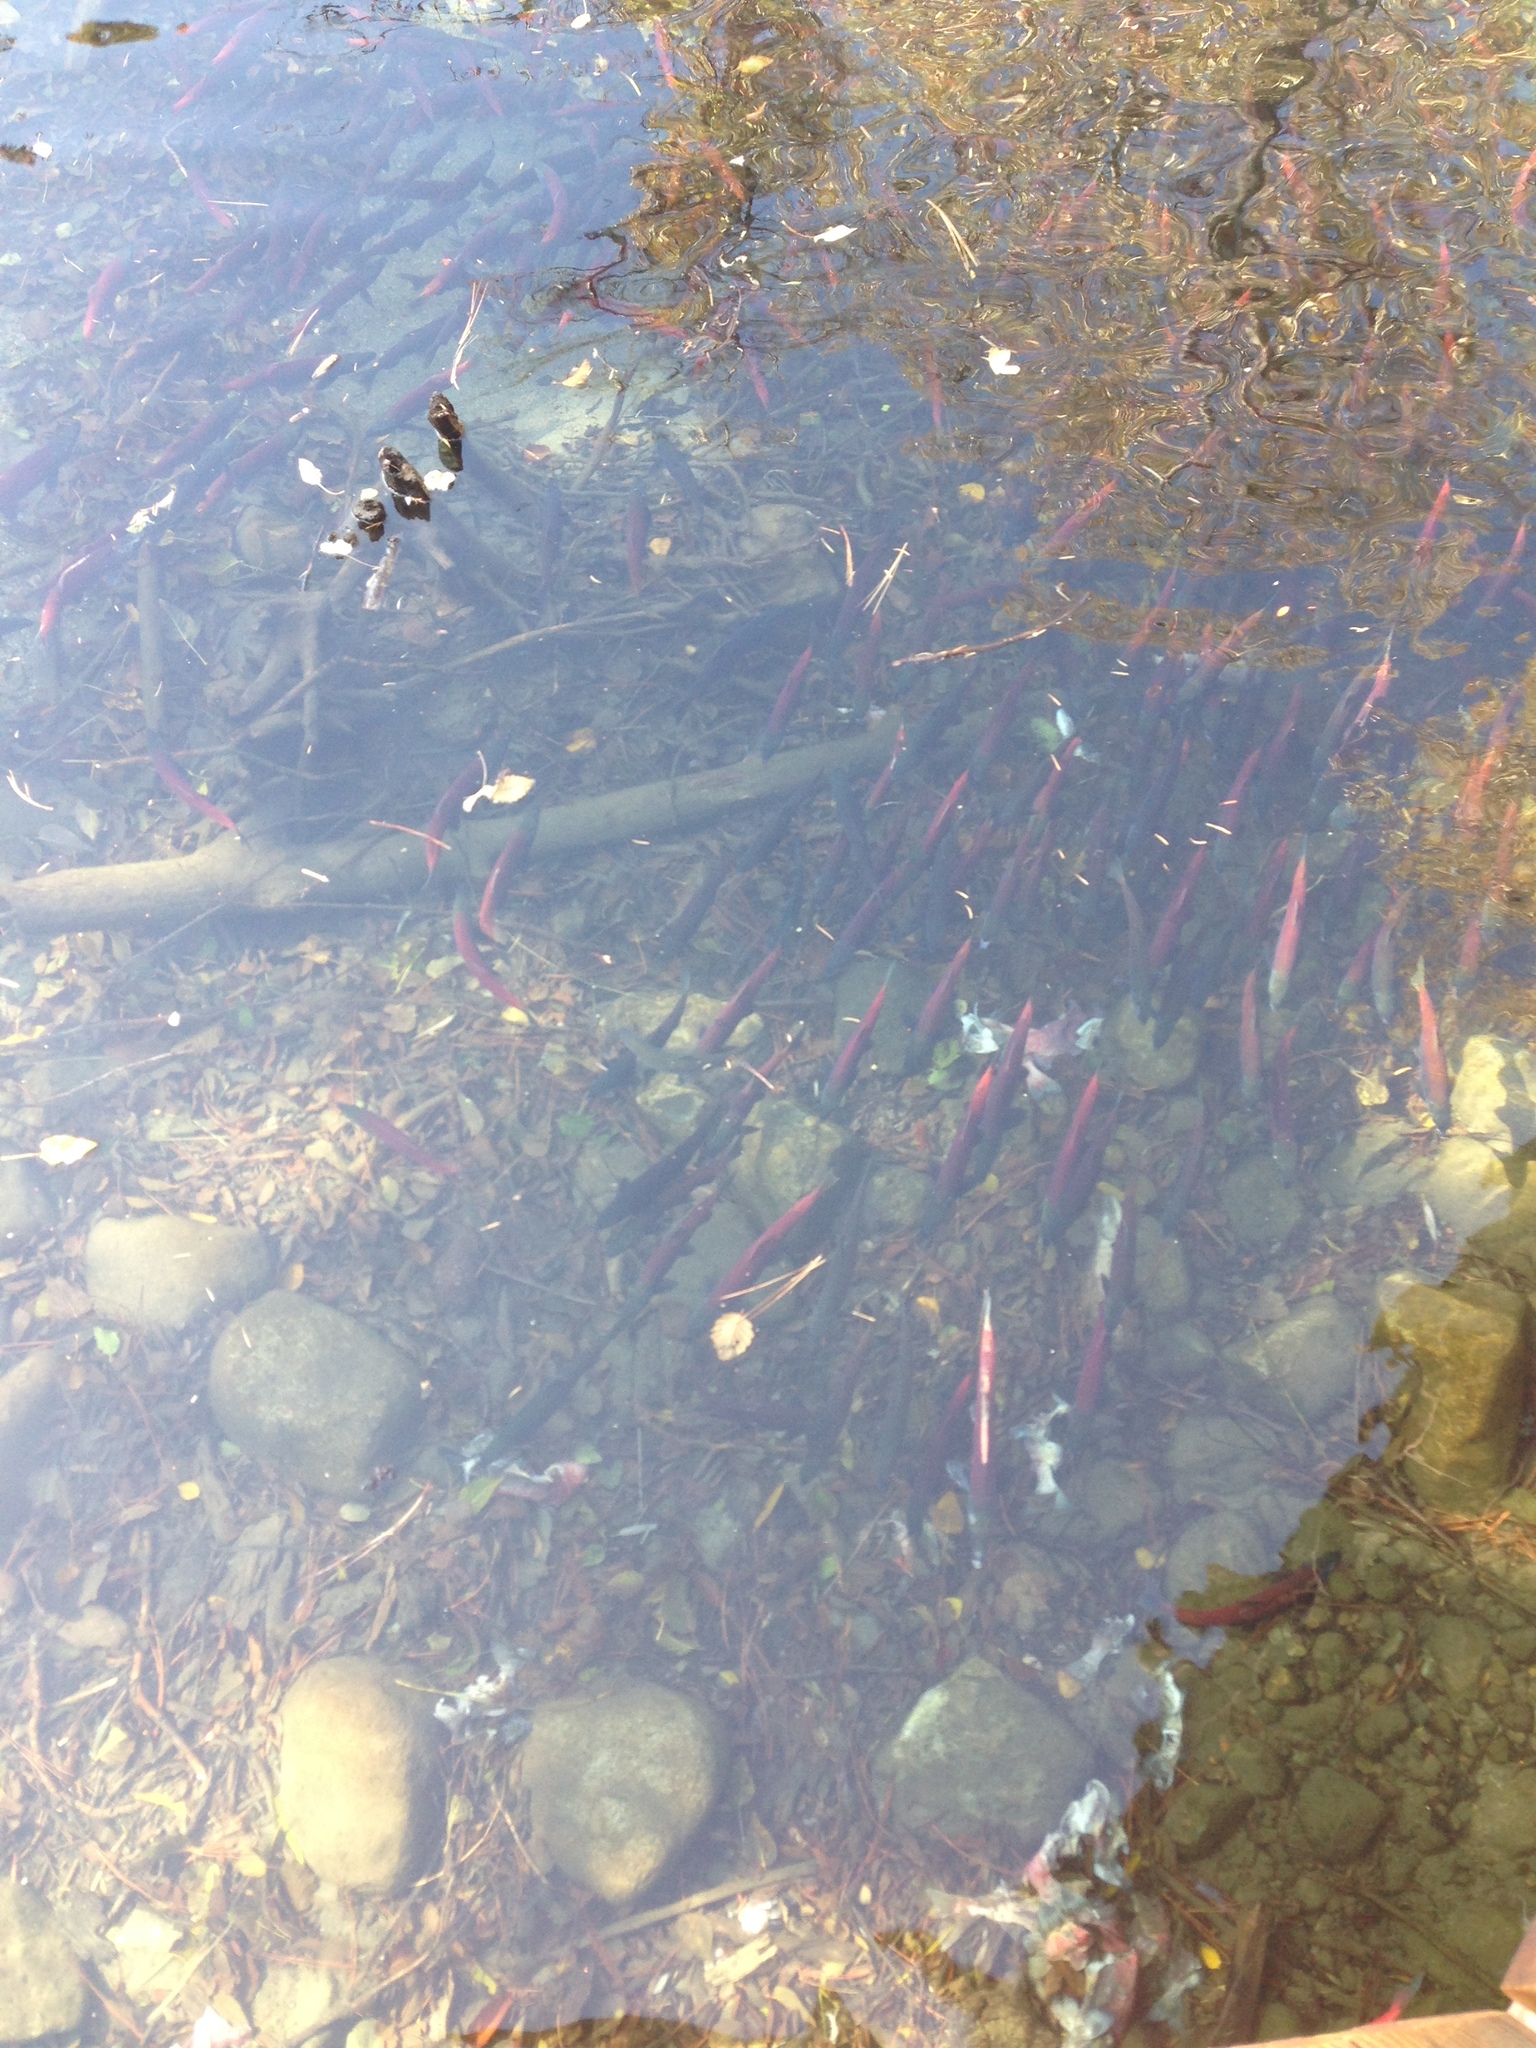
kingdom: Animalia
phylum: Chordata
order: Salmoniformes
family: Salmonidae
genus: Oncorhynchus
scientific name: Oncorhynchus nerka
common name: Sockeye salmon
